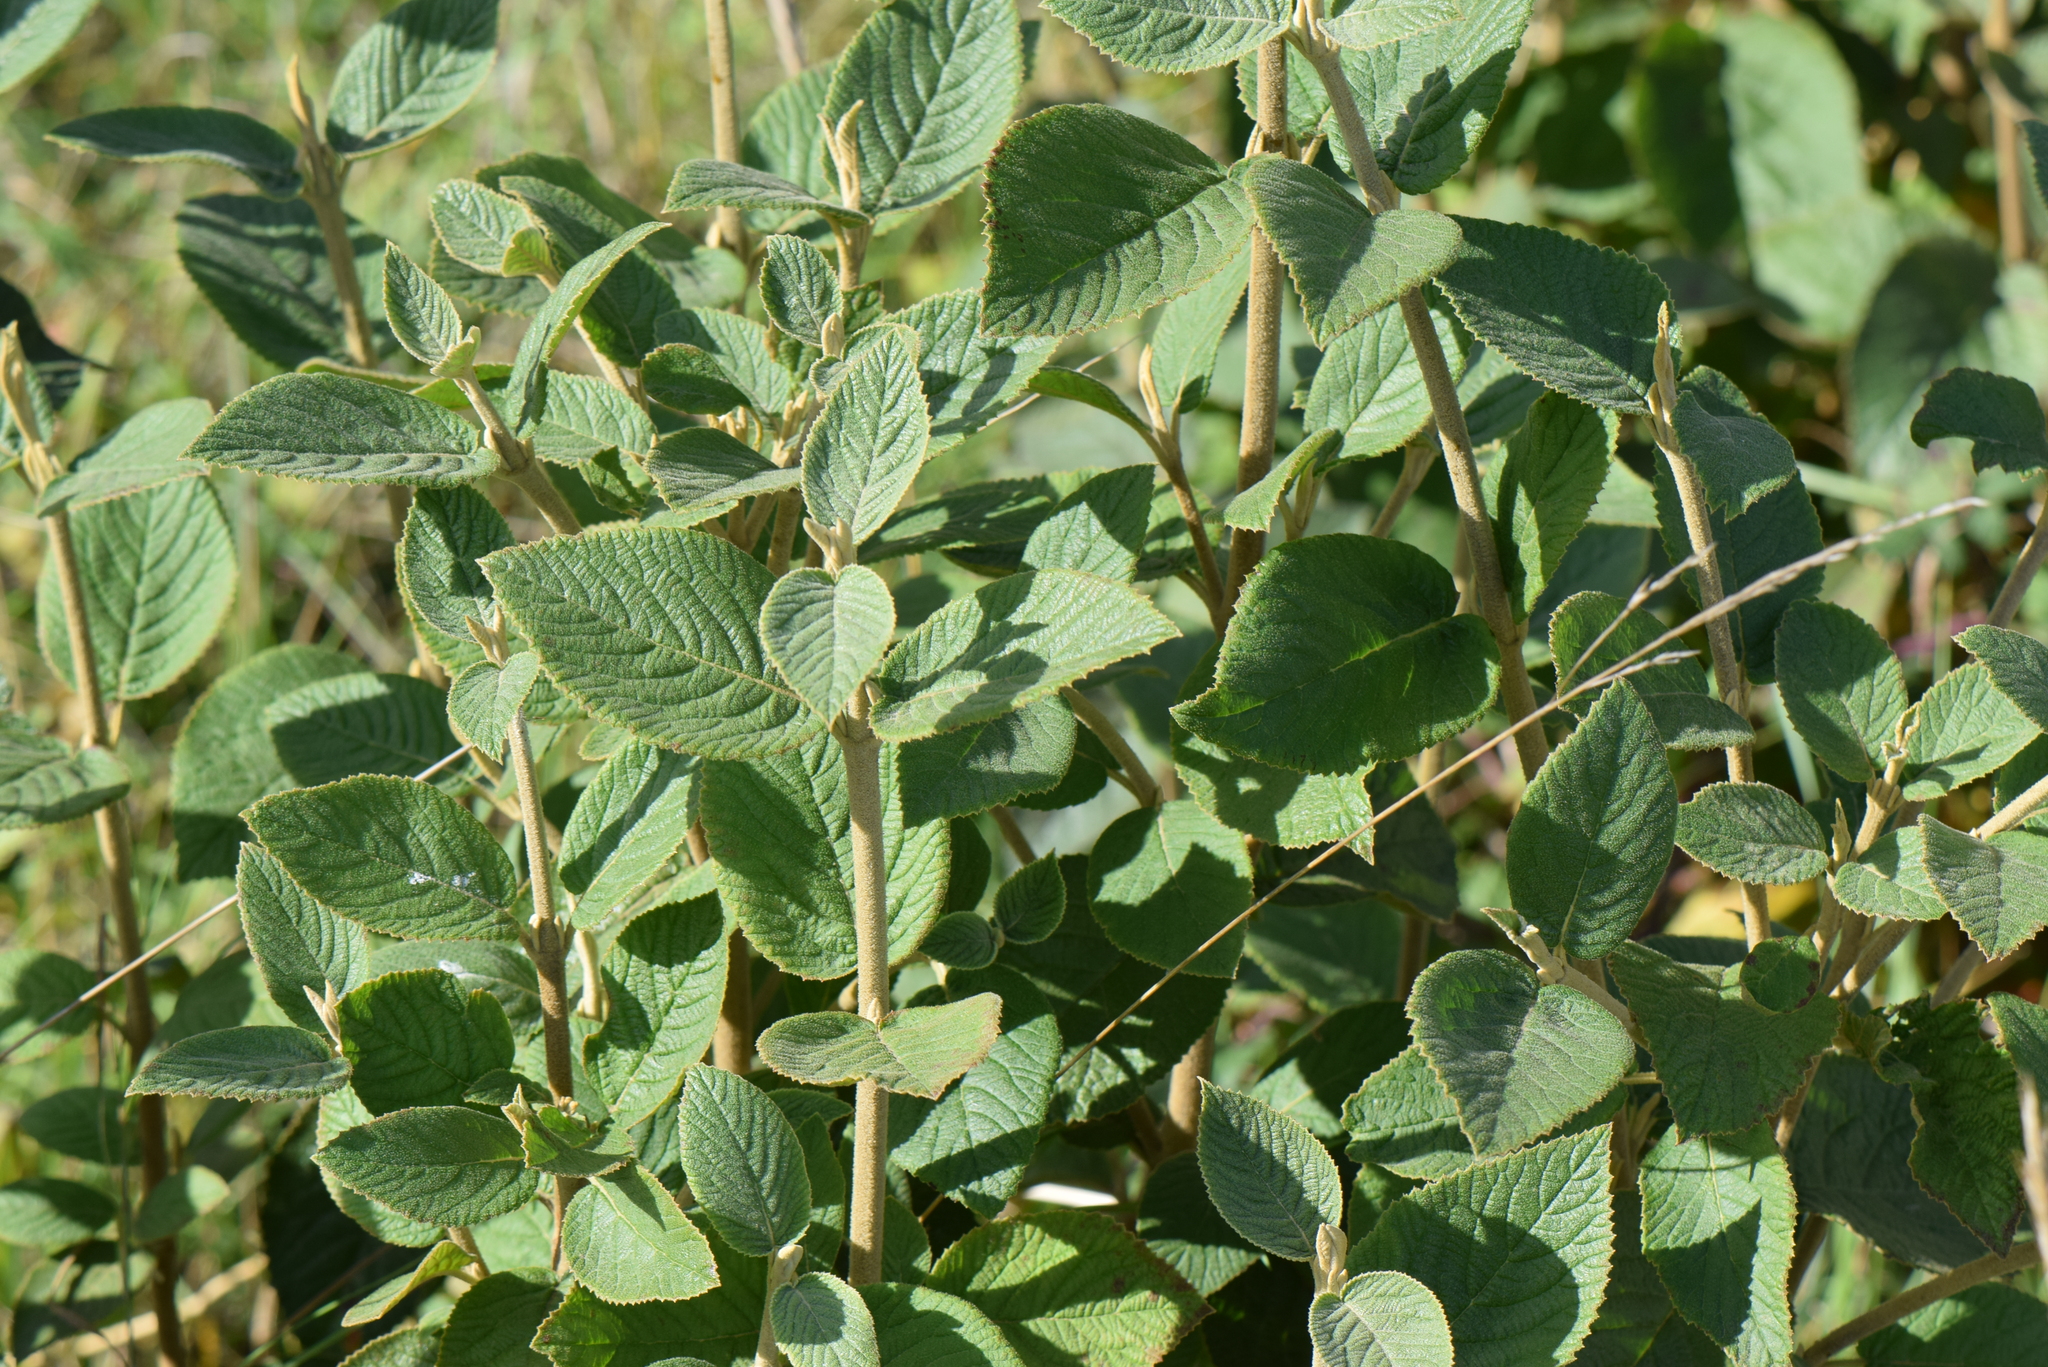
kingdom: Plantae
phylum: Tracheophyta
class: Magnoliopsida
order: Dipsacales
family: Viburnaceae
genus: Viburnum
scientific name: Viburnum lantana
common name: Wayfaring tree
